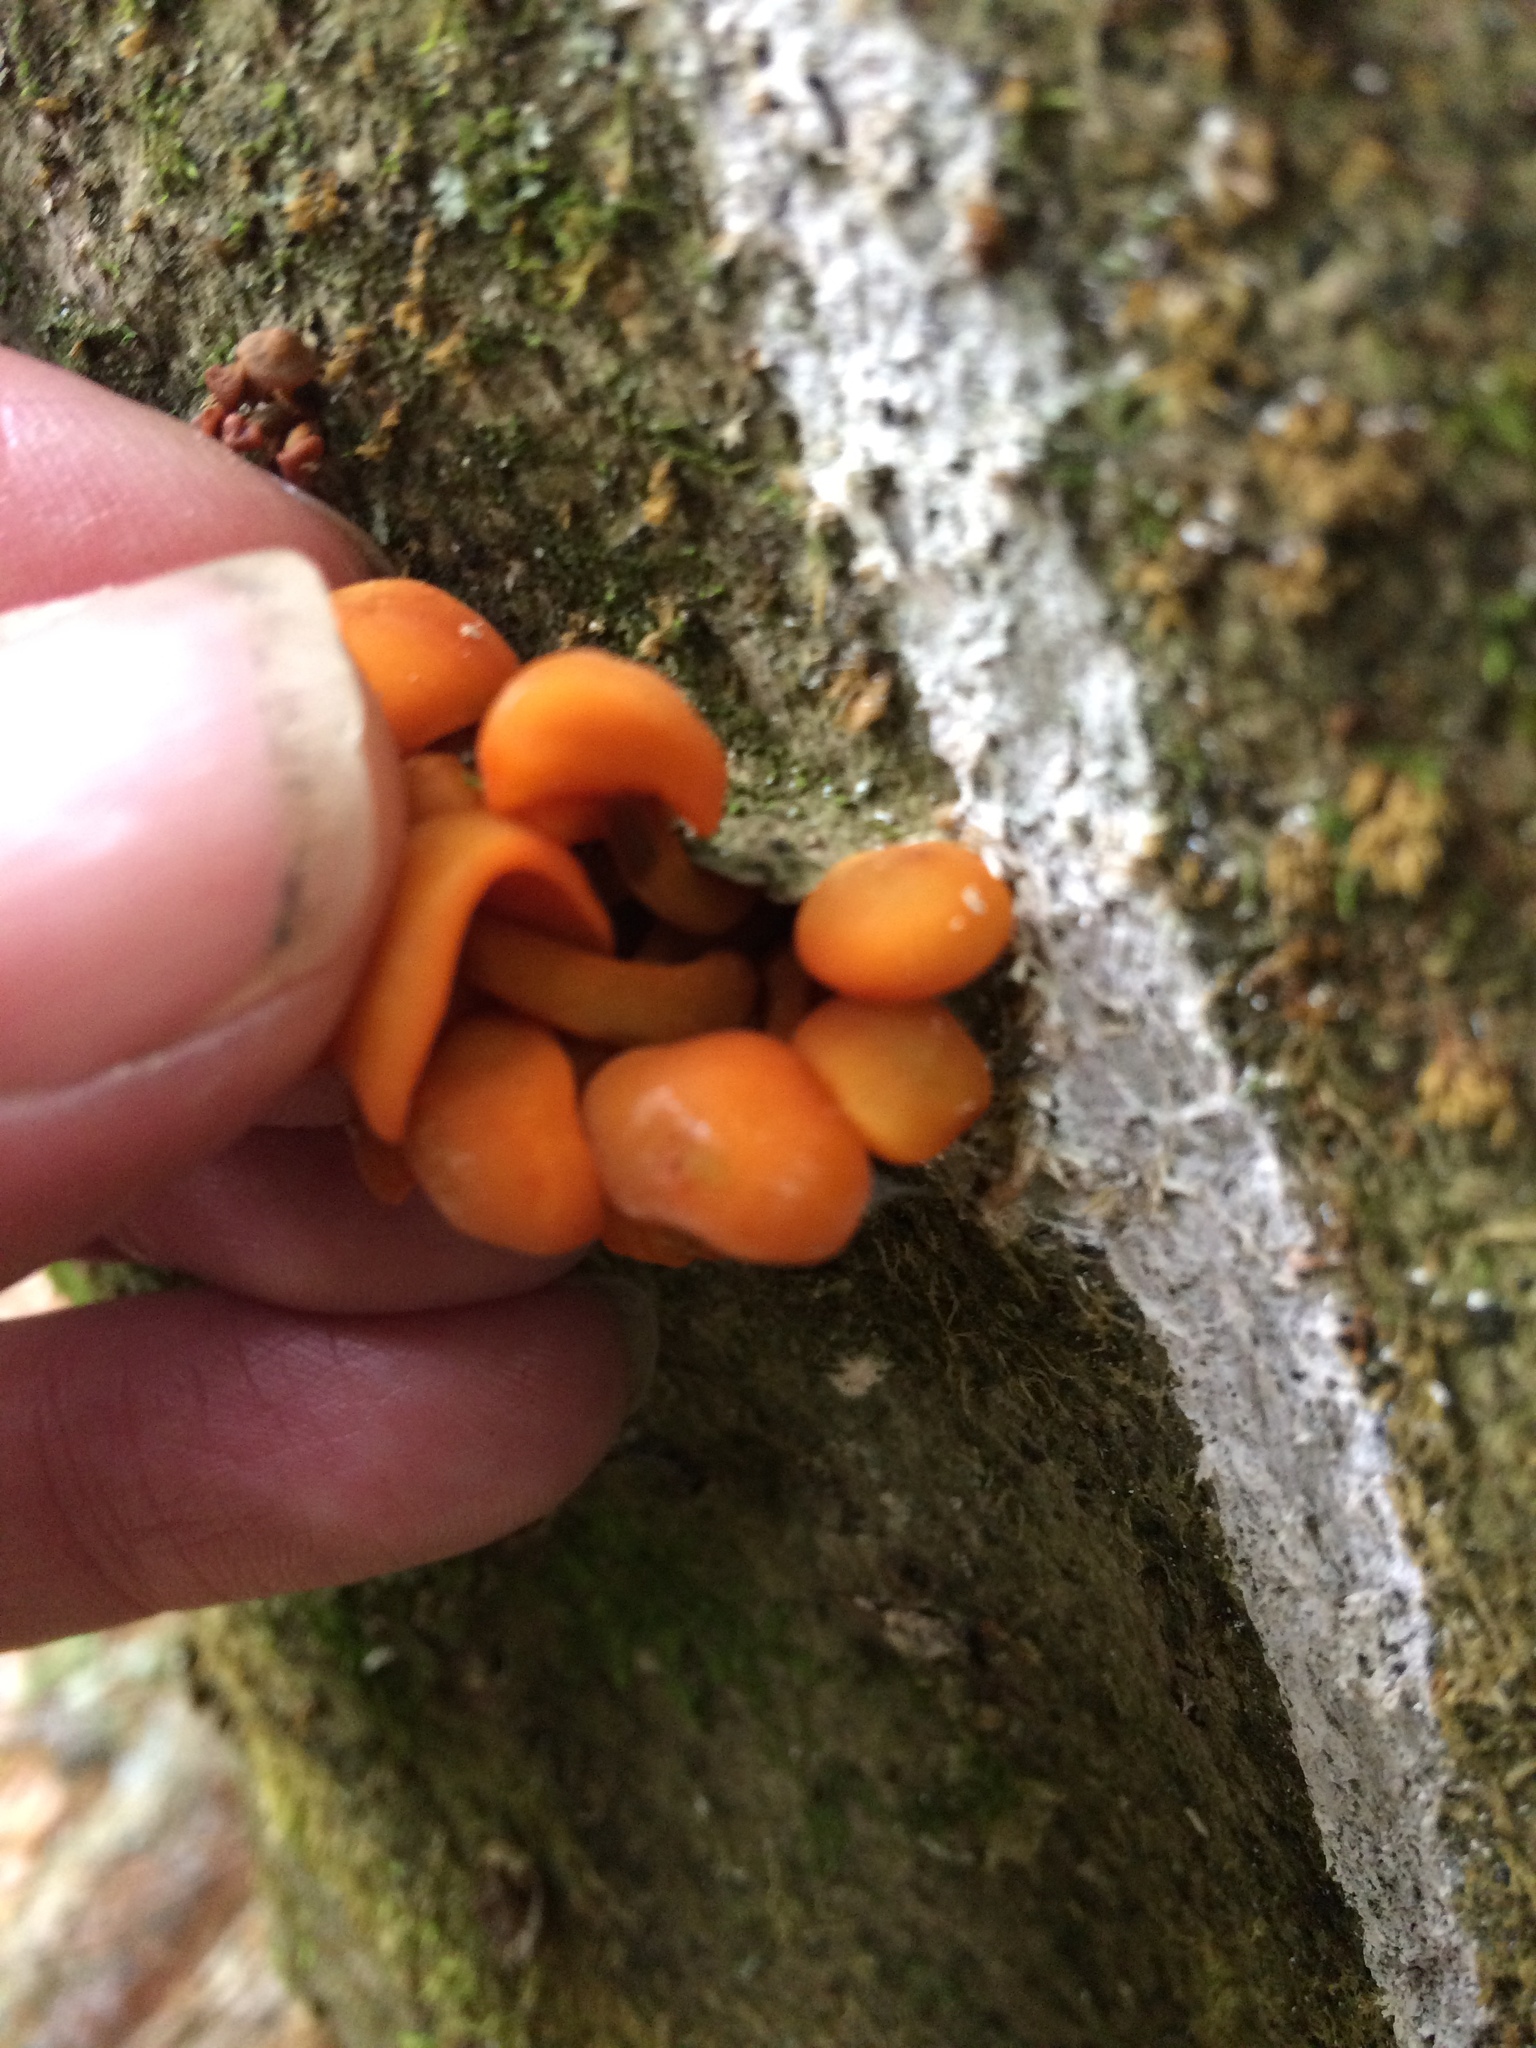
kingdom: Fungi
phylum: Basidiomycota
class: Agaricomycetes
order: Agaricales
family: Mycenaceae
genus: Mycena
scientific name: Mycena leaiana
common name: Orange mycena
